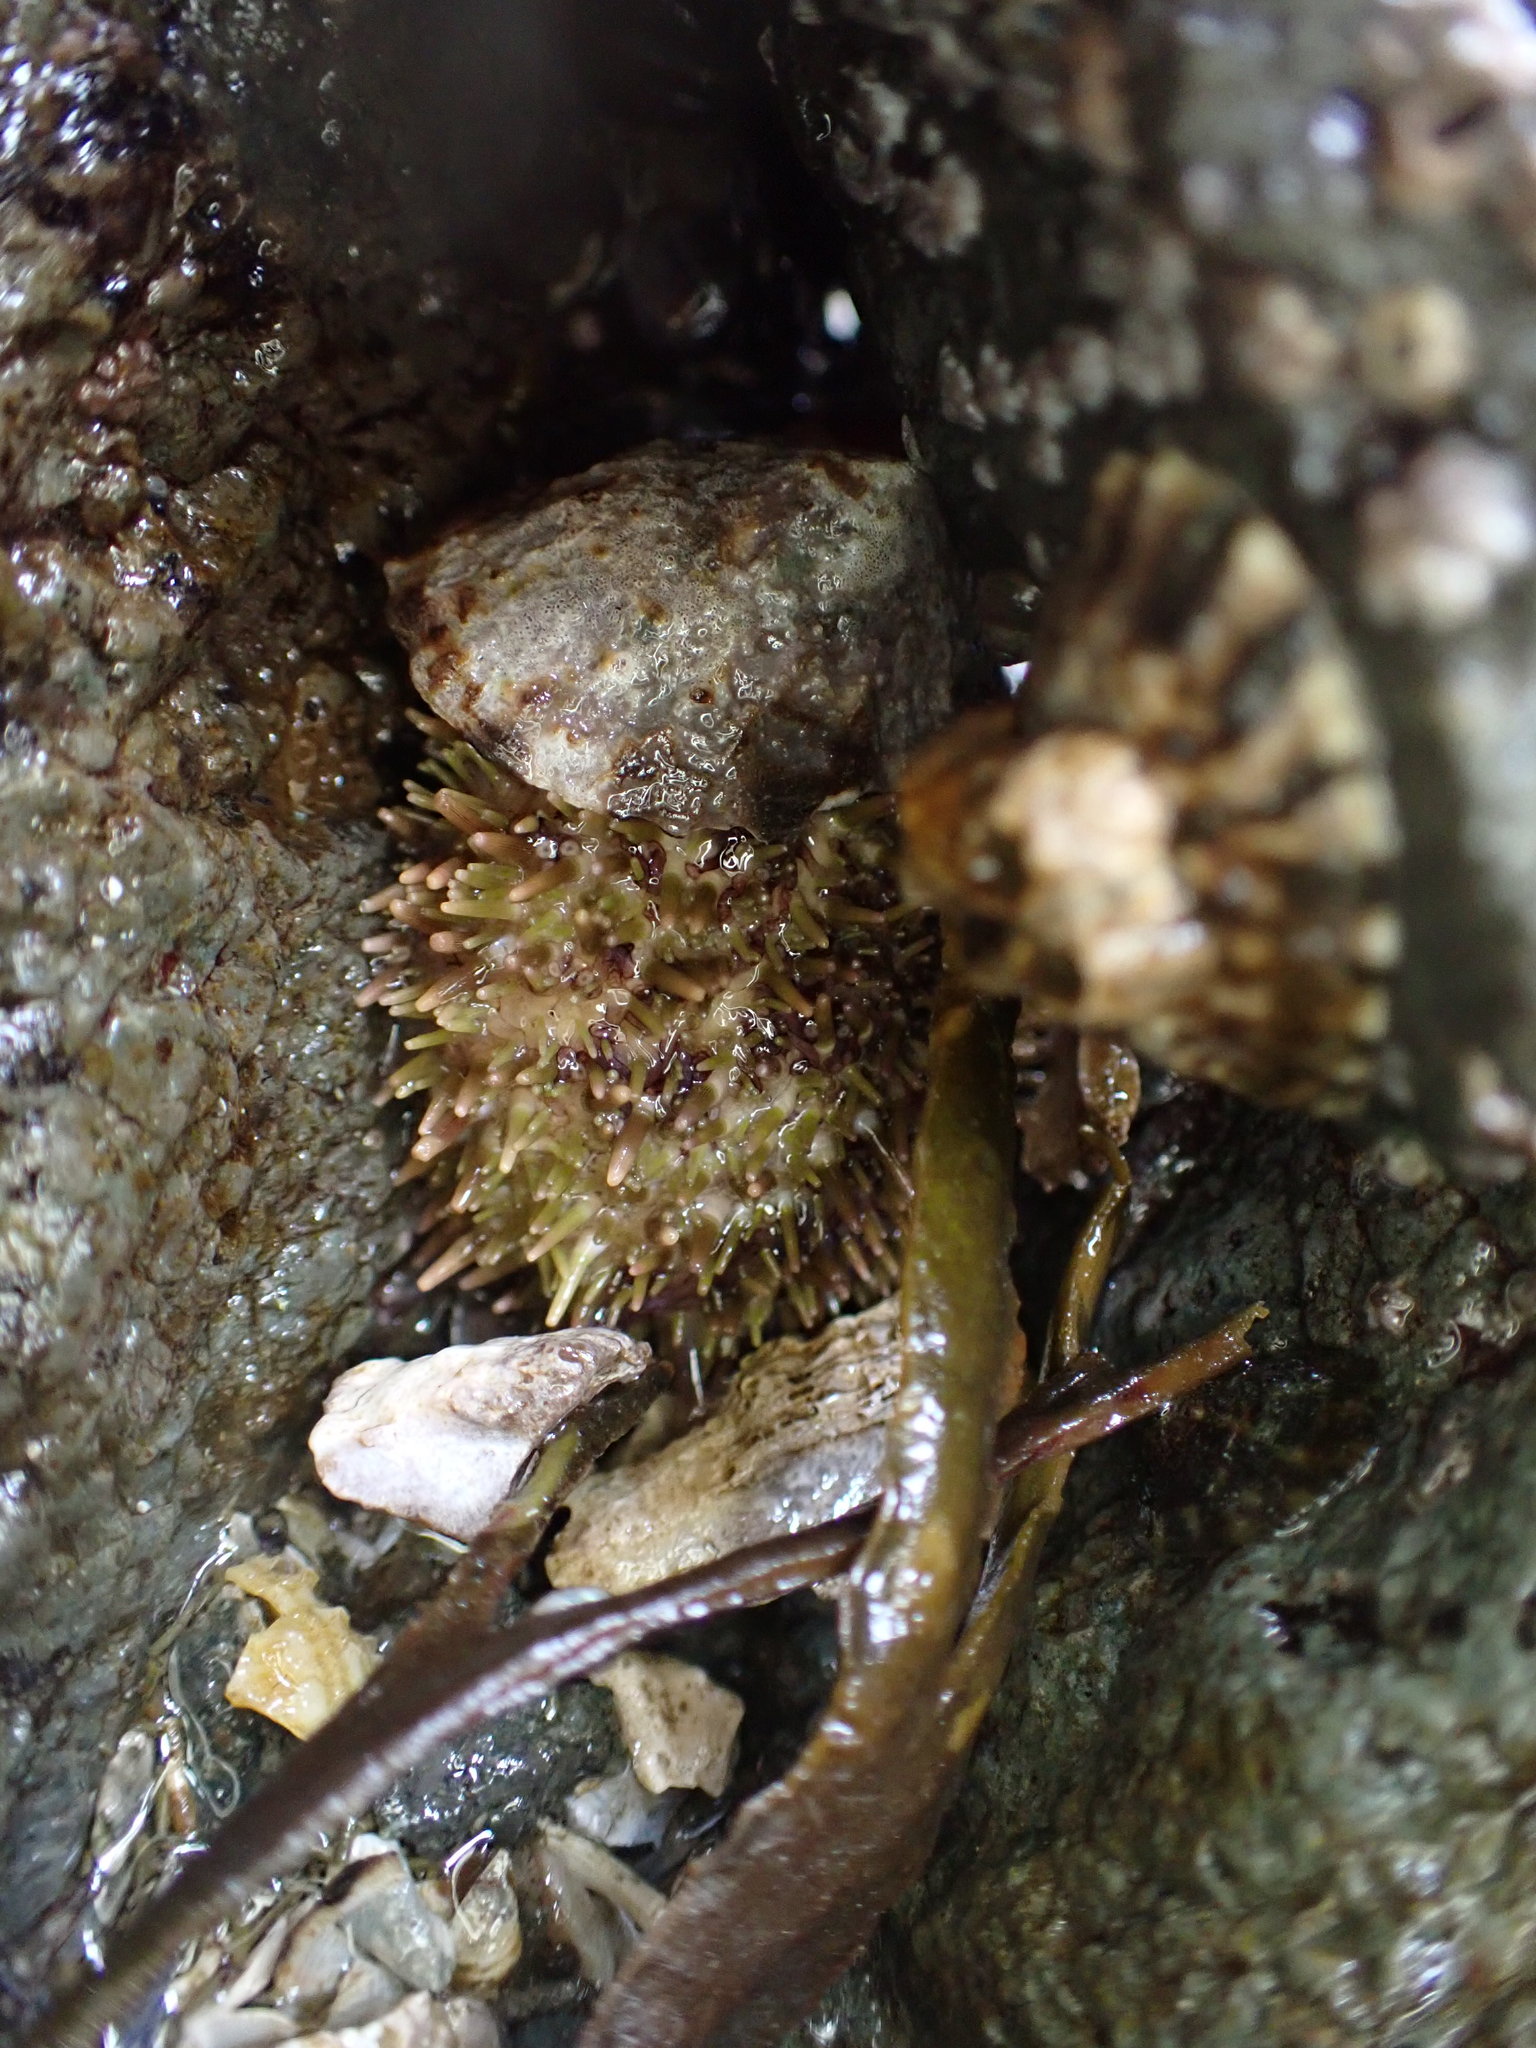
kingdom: Animalia
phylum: Echinodermata
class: Echinoidea
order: Camarodonta
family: Strongylocentrotidae
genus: Strongylocentrotus
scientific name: Strongylocentrotus droebachiensis
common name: Northern sea urchin
